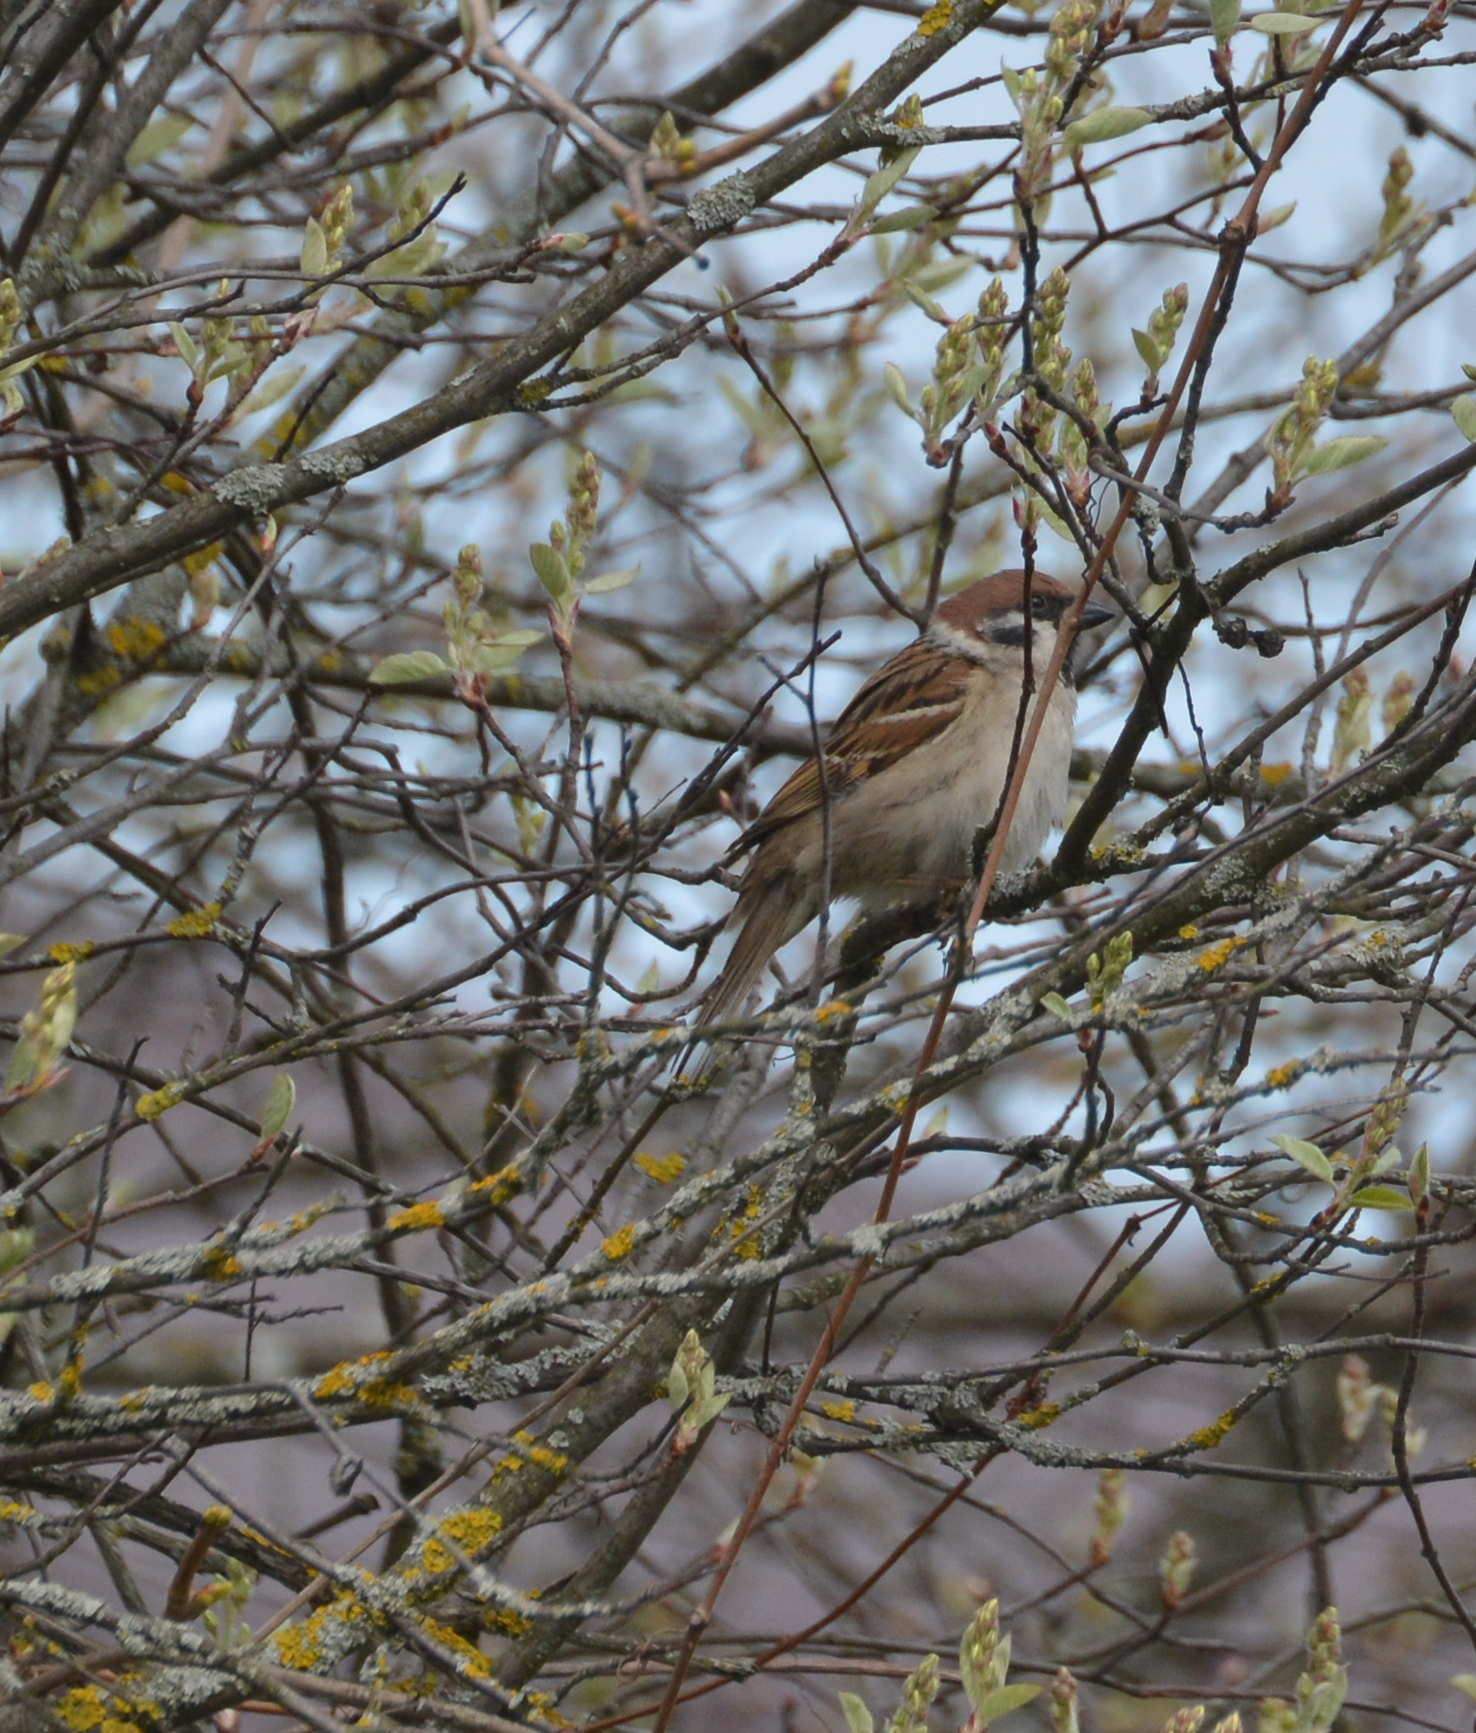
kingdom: Animalia
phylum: Chordata
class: Aves
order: Passeriformes
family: Passeridae
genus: Passer
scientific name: Passer montanus
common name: Eurasian tree sparrow
